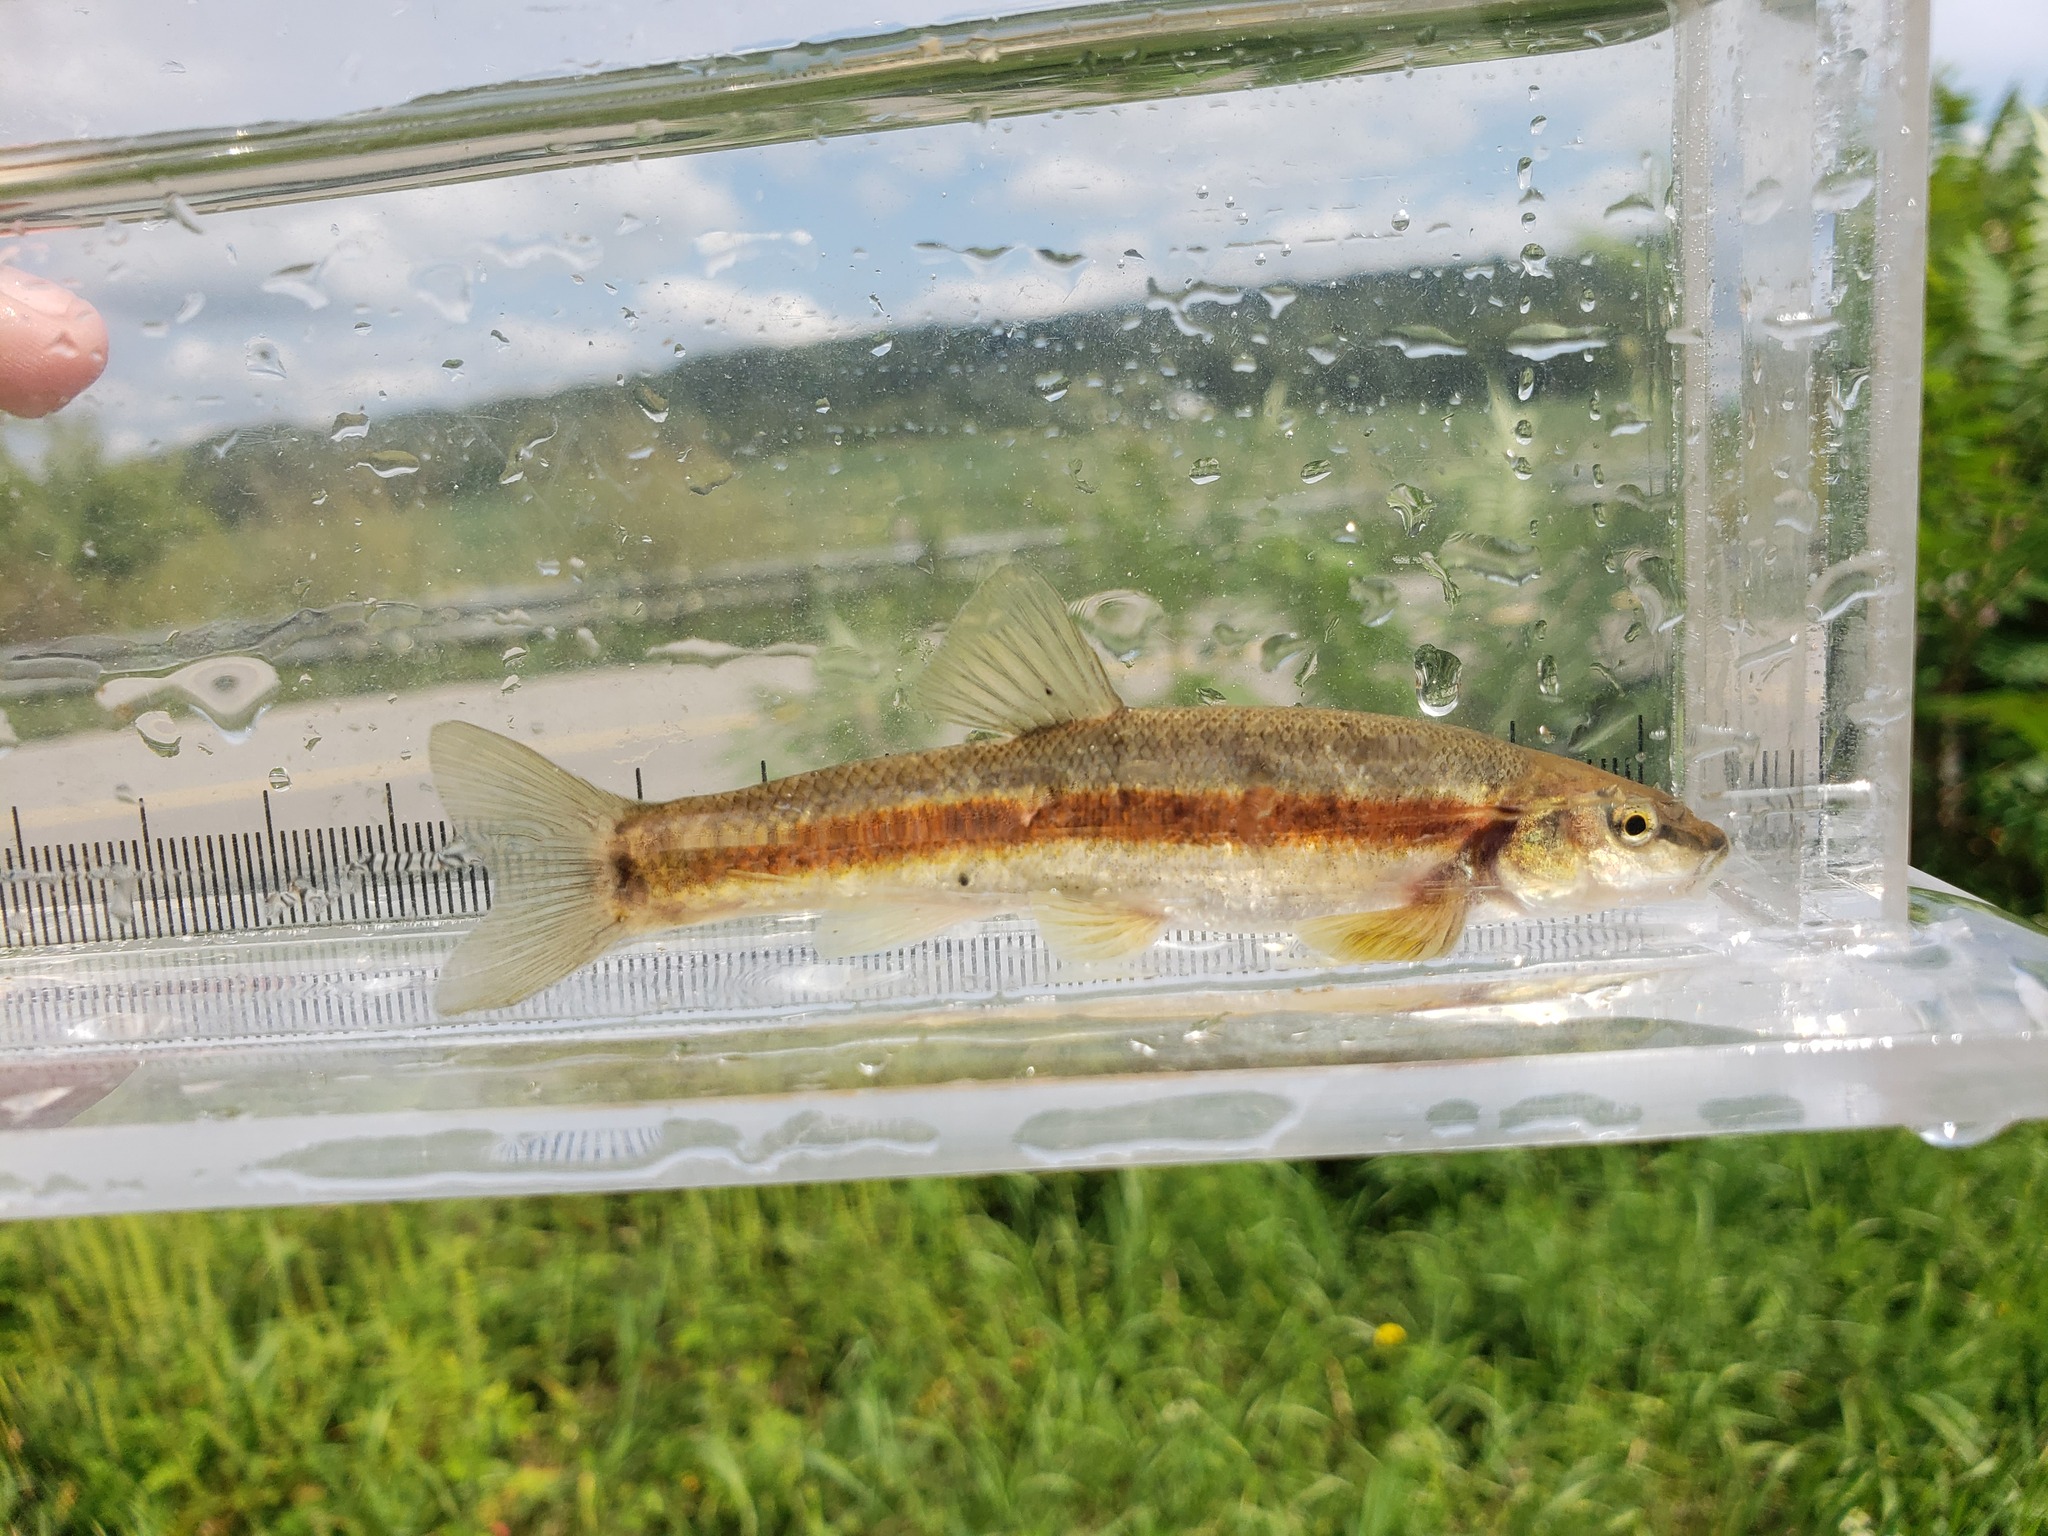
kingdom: Animalia
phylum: Chordata
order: Cypriniformes
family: Cyprinidae
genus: Rhinichthys
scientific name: Rhinichthys obtusus
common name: Western blacknose dace
